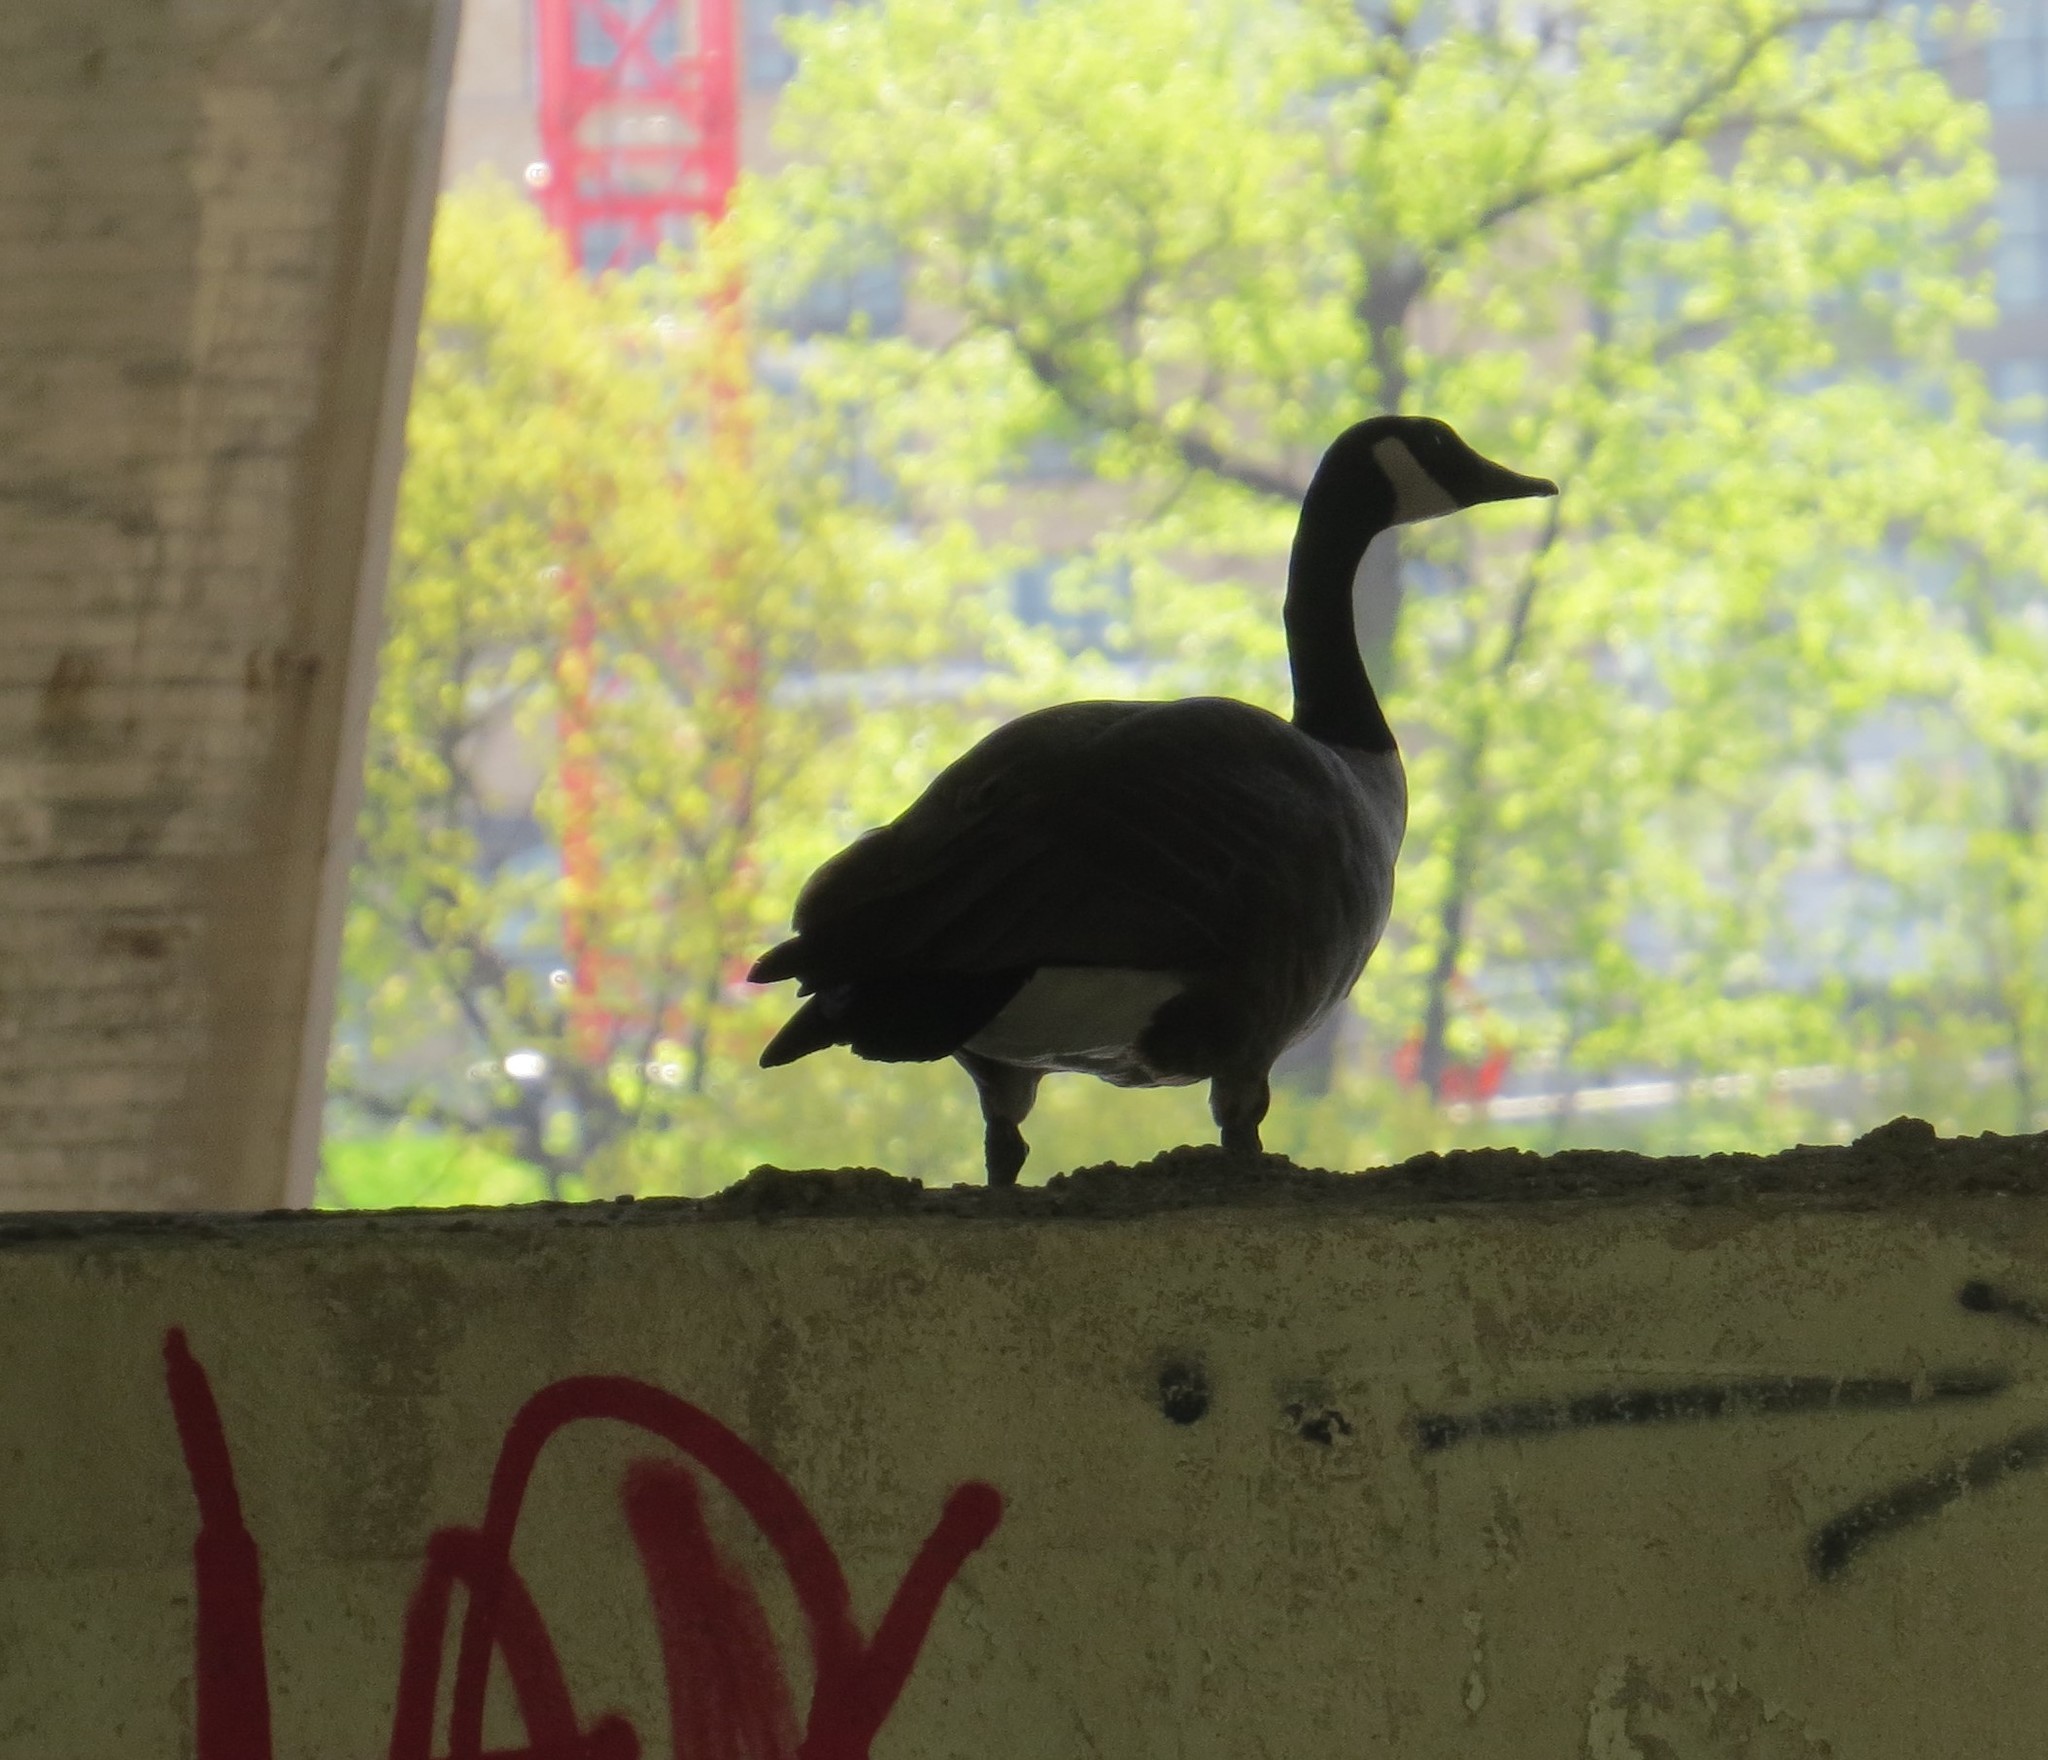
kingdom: Animalia
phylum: Chordata
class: Aves
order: Anseriformes
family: Anatidae
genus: Branta
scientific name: Branta canadensis
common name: Canada goose
